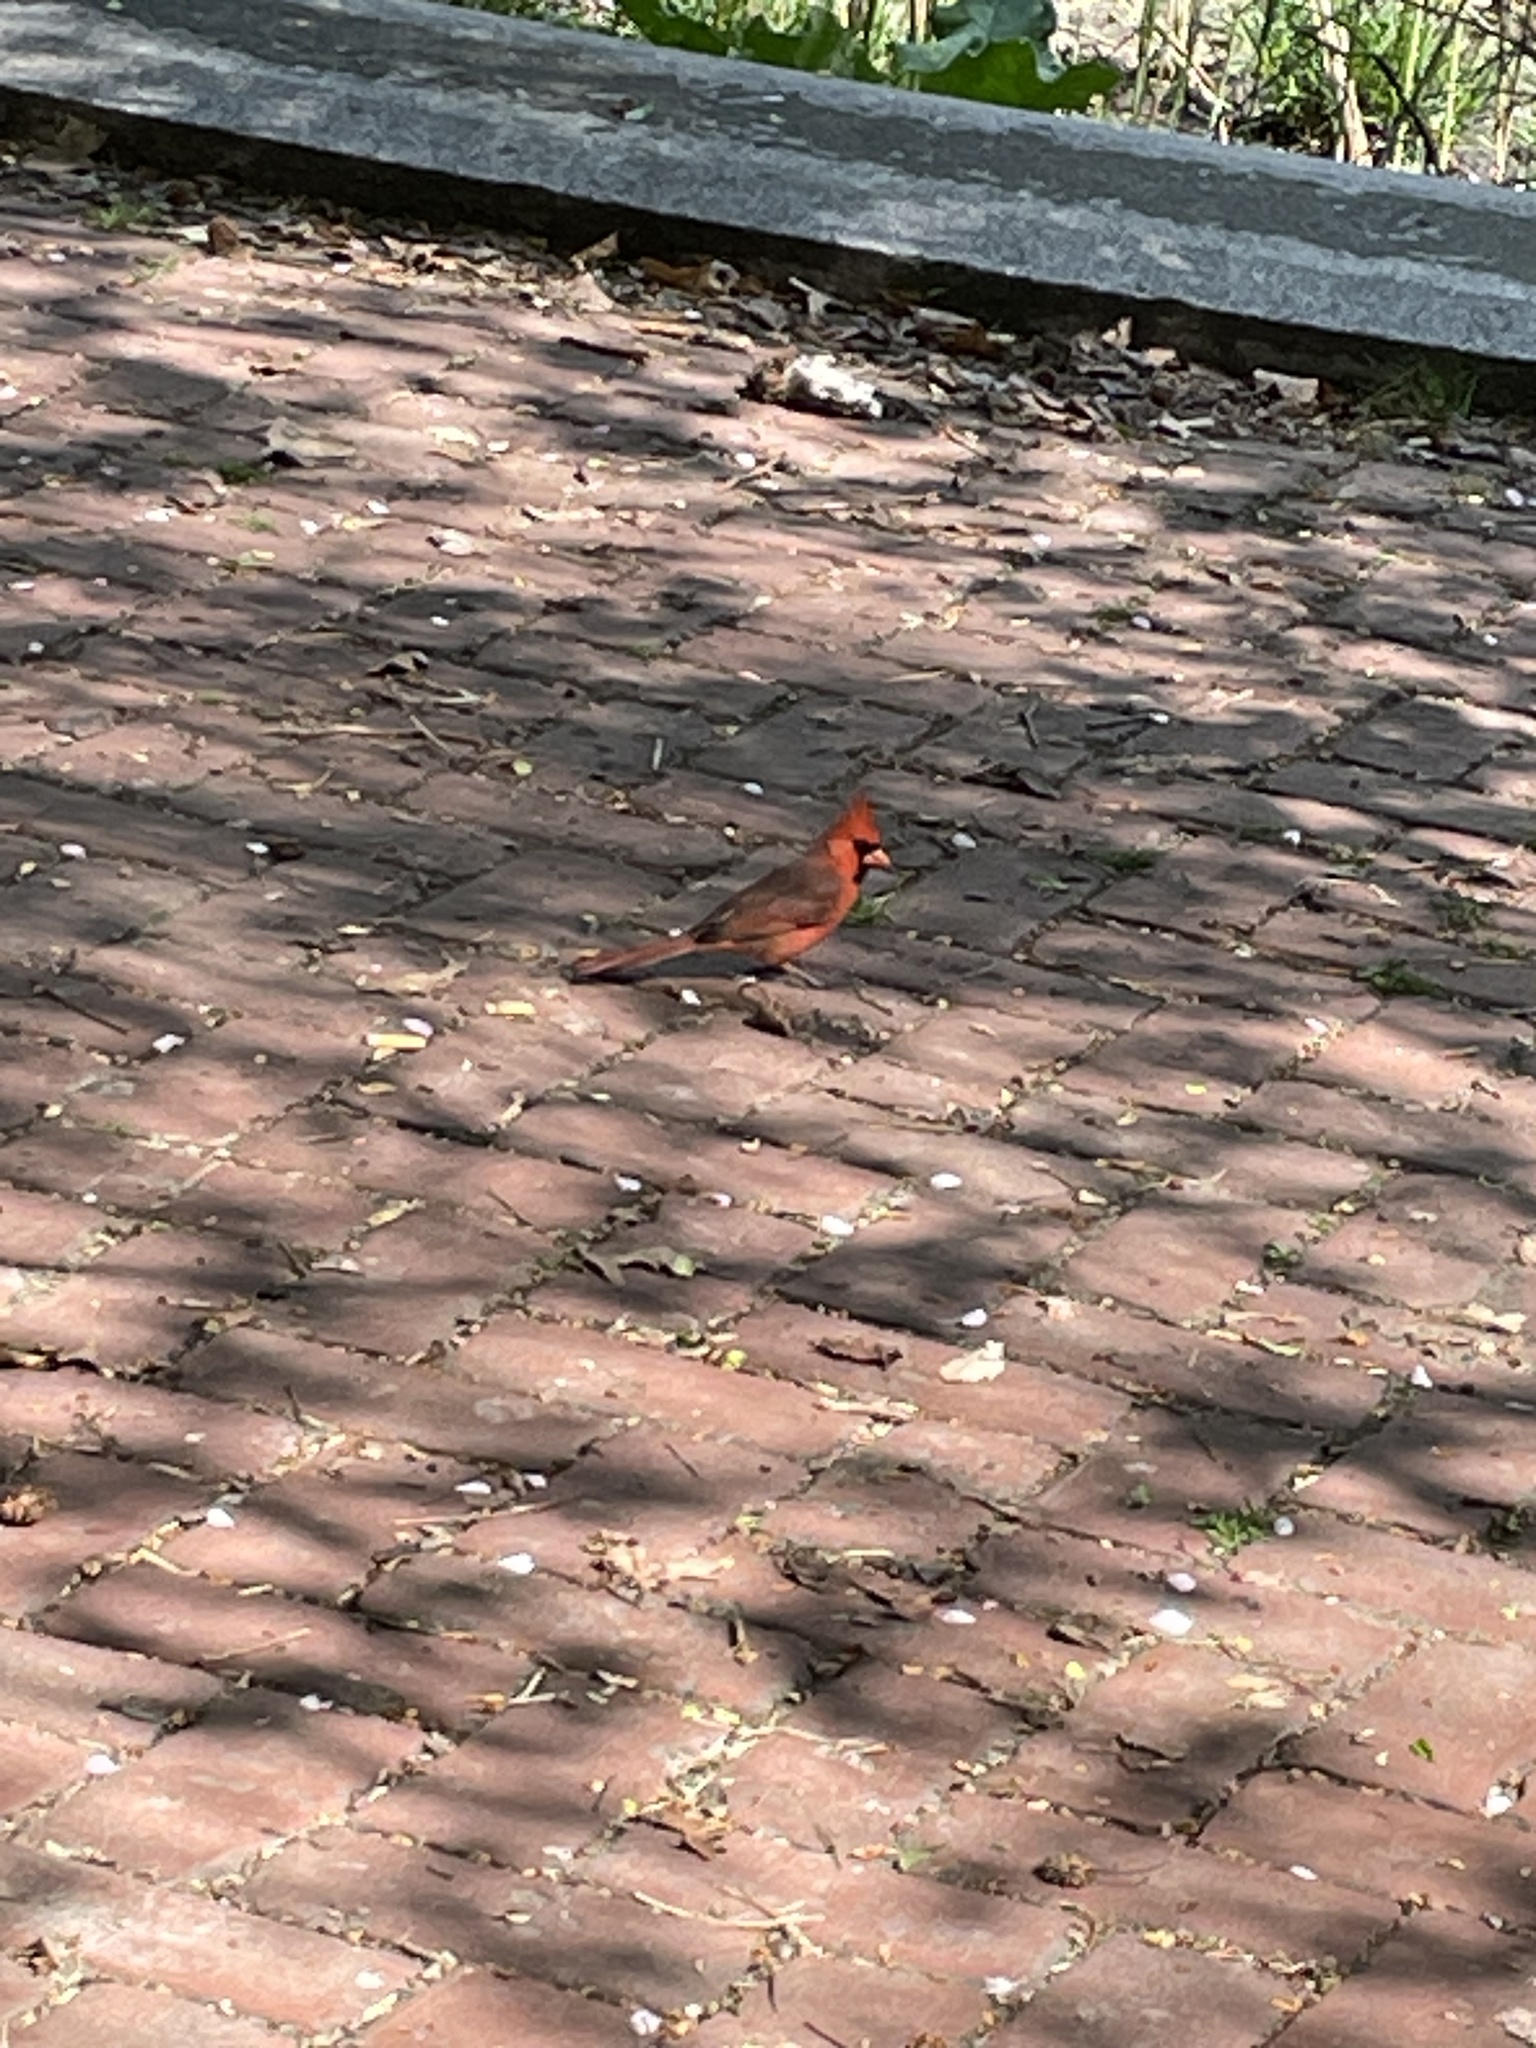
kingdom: Animalia
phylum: Chordata
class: Aves
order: Passeriformes
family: Cardinalidae
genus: Cardinalis
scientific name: Cardinalis cardinalis
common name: Northern cardinal
